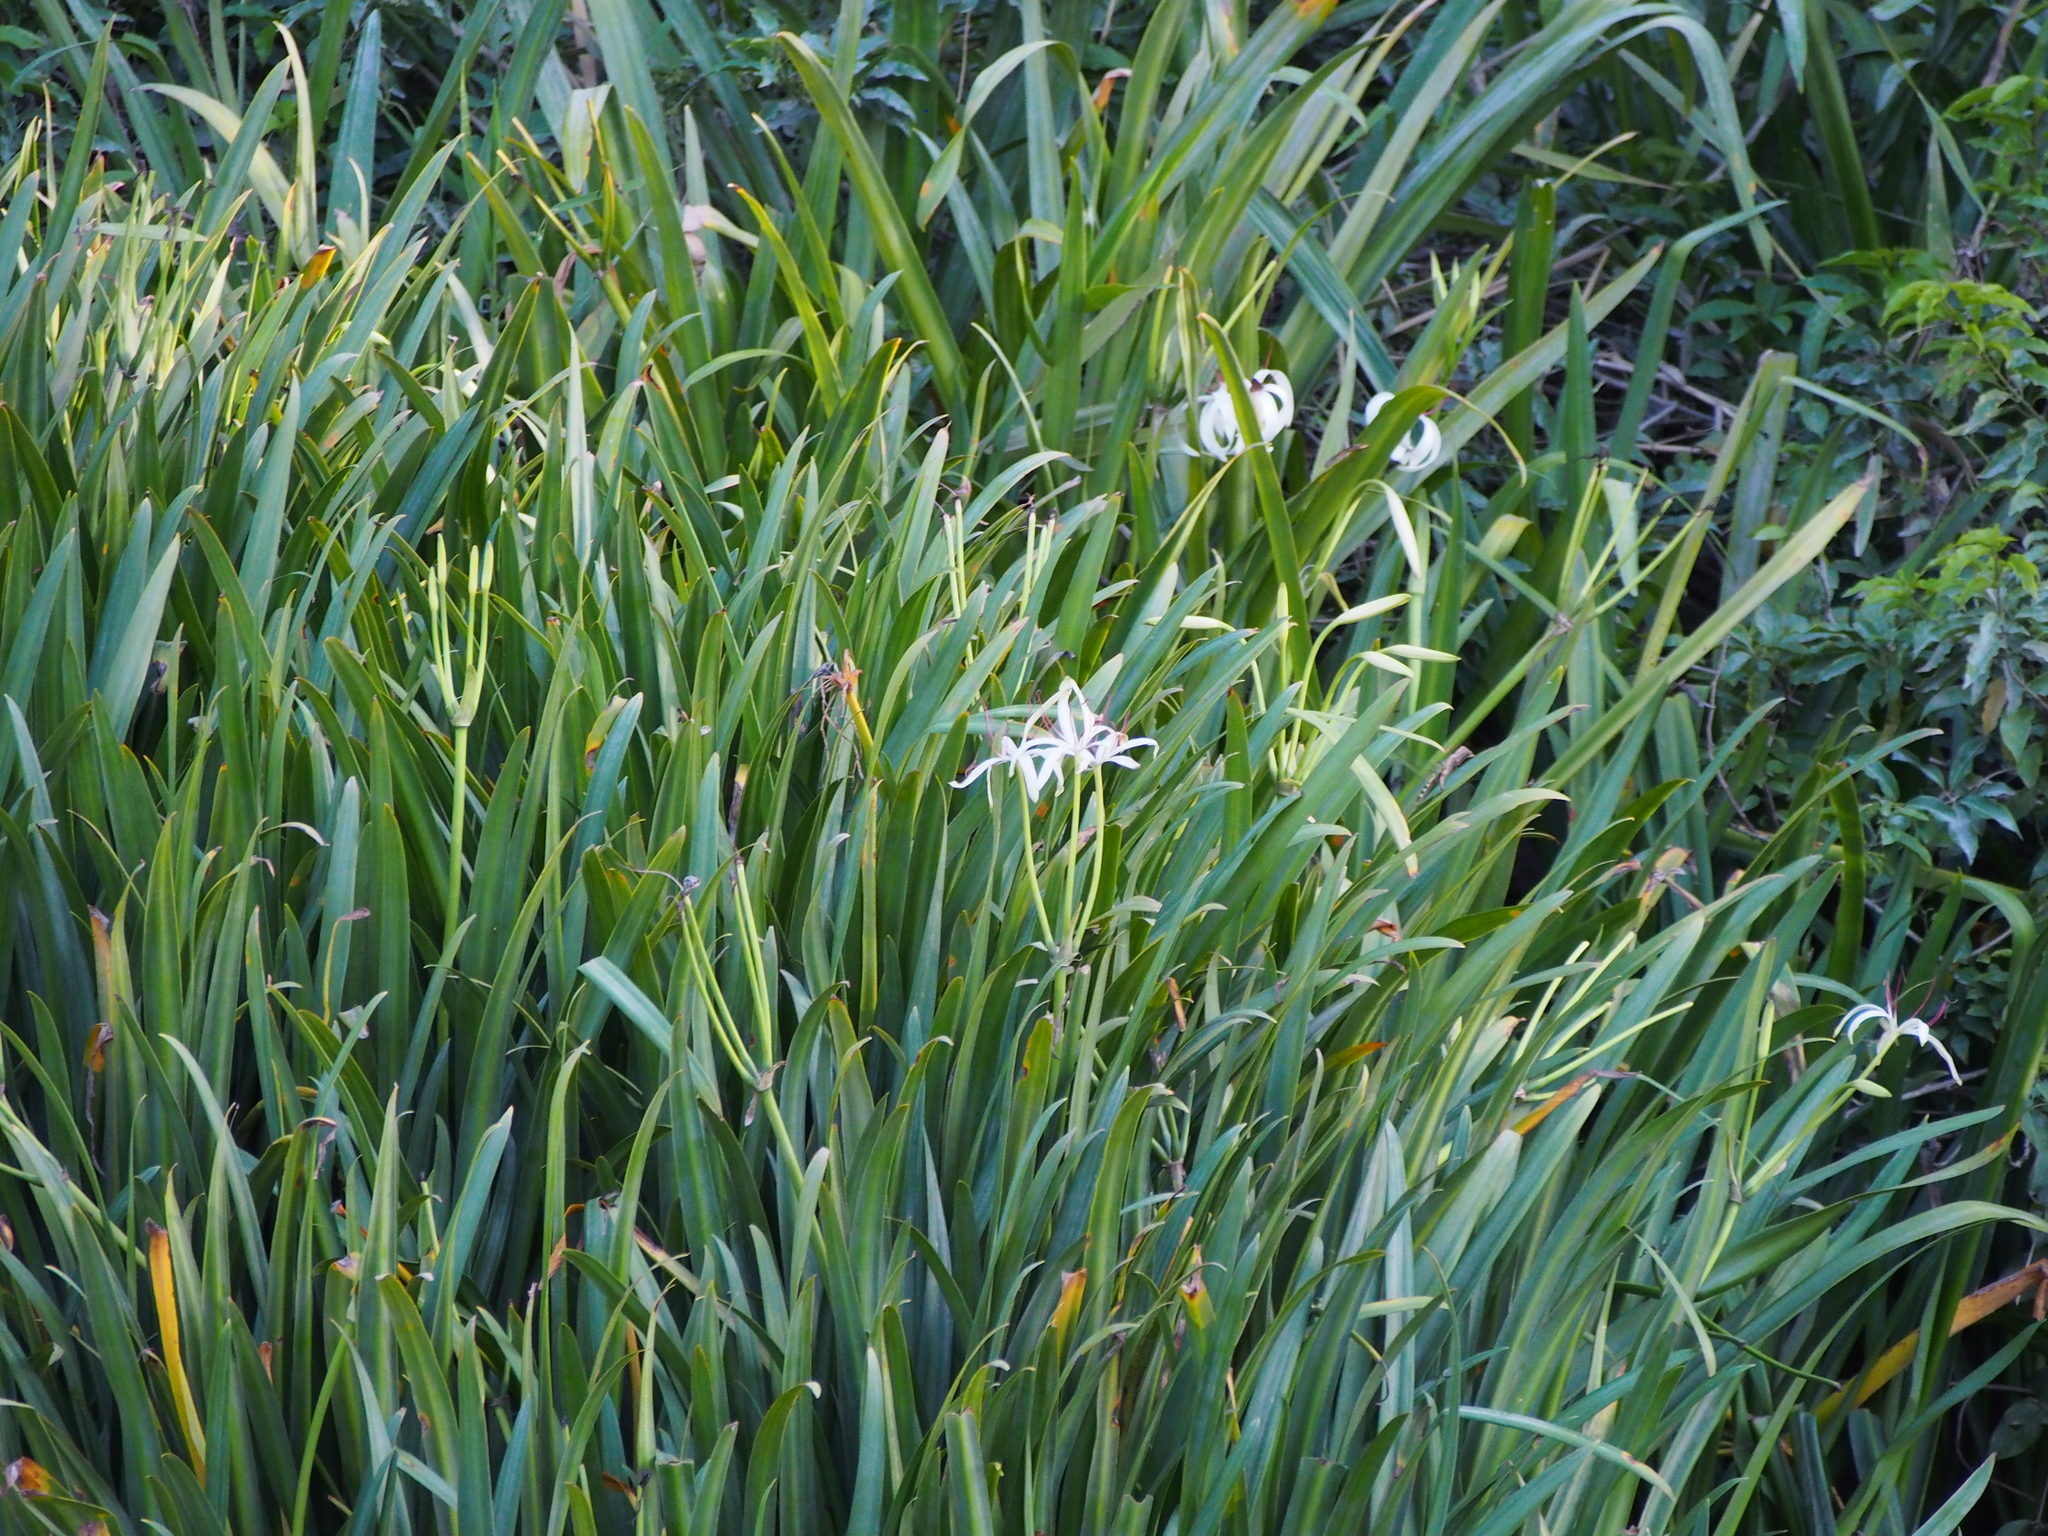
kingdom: Plantae
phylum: Tracheophyta
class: Liliopsida
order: Asparagales
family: Amaryllidaceae
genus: Crinum
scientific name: Crinum erubescens
